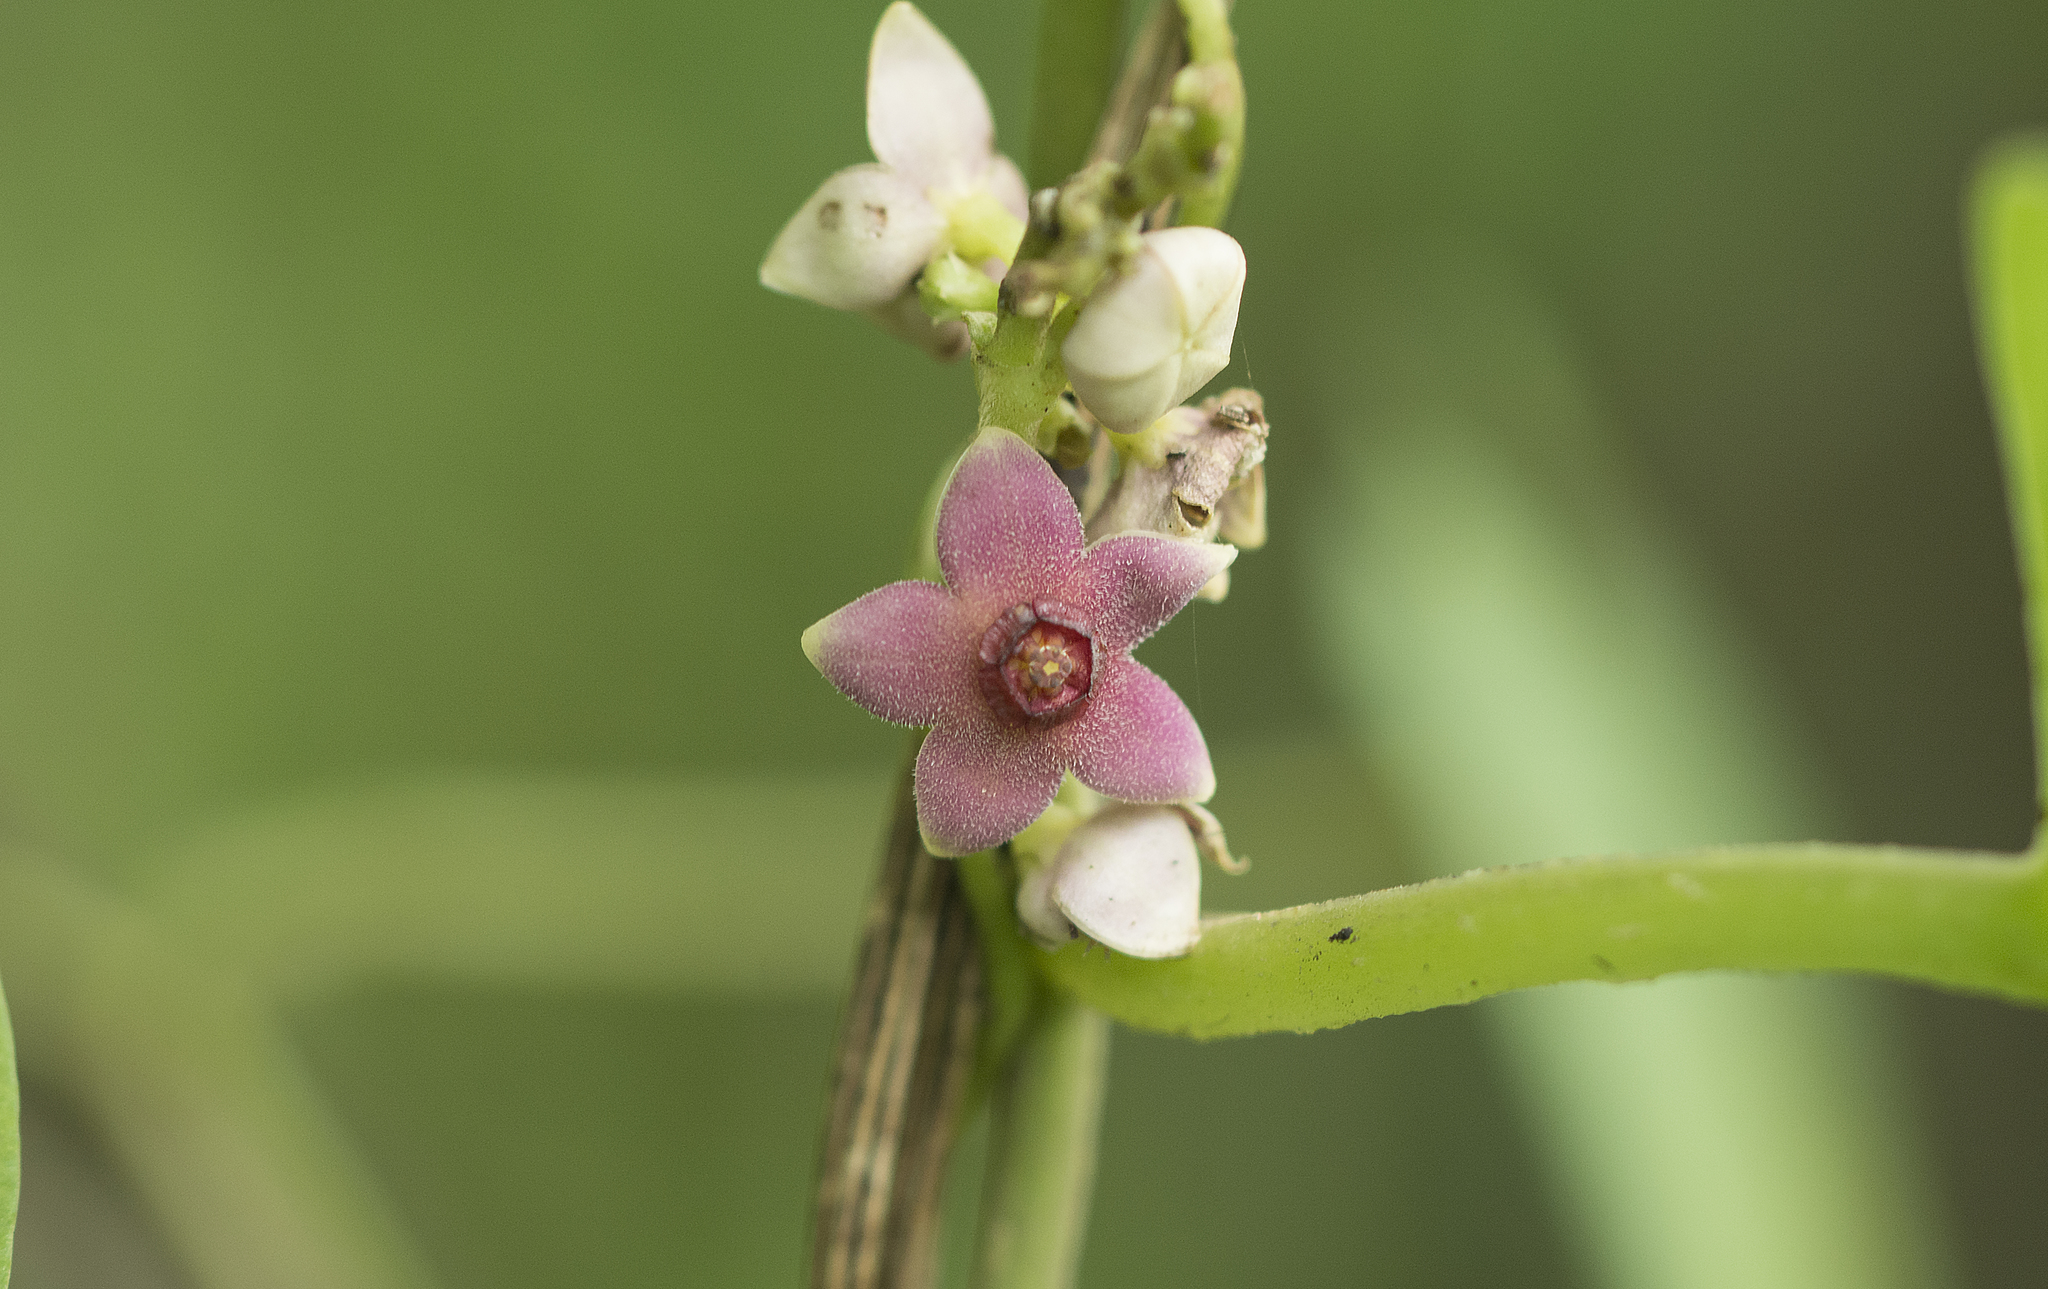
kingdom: Plantae
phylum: Tracheophyta
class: Magnoliopsida
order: Gentianales
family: Apocynaceae
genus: Heterostemma
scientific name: Heterostemma dalzellii
